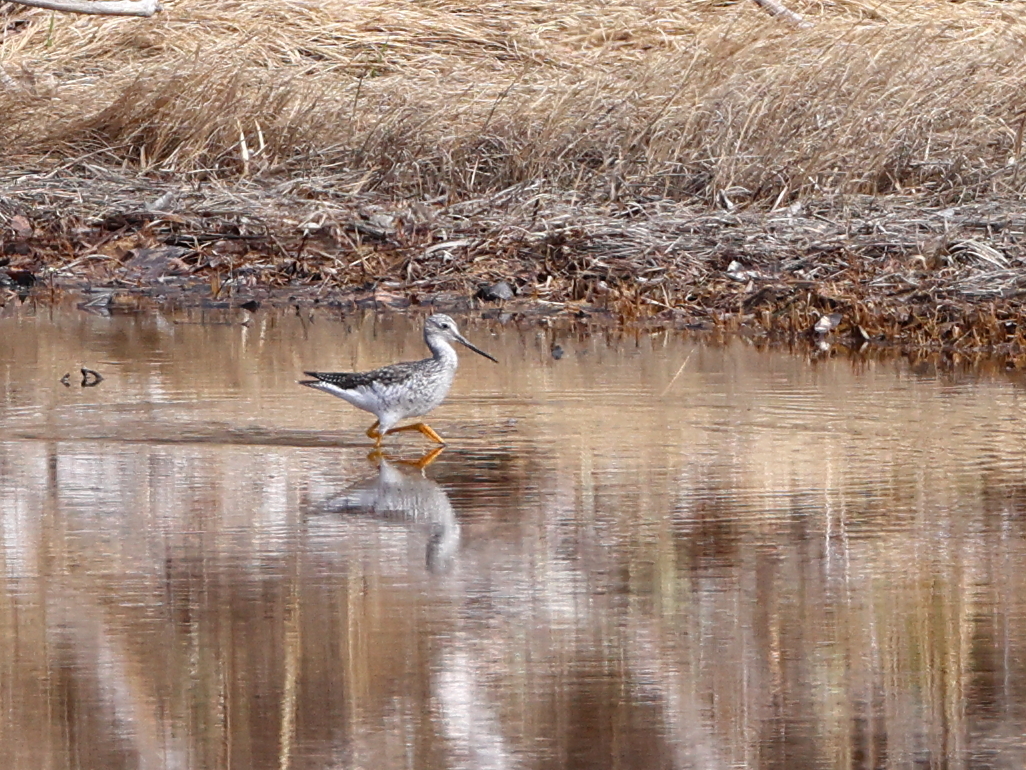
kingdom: Animalia
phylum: Chordata
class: Aves
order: Charadriiformes
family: Scolopacidae
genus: Tringa
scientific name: Tringa melanoleuca
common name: Greater yellowlegs
